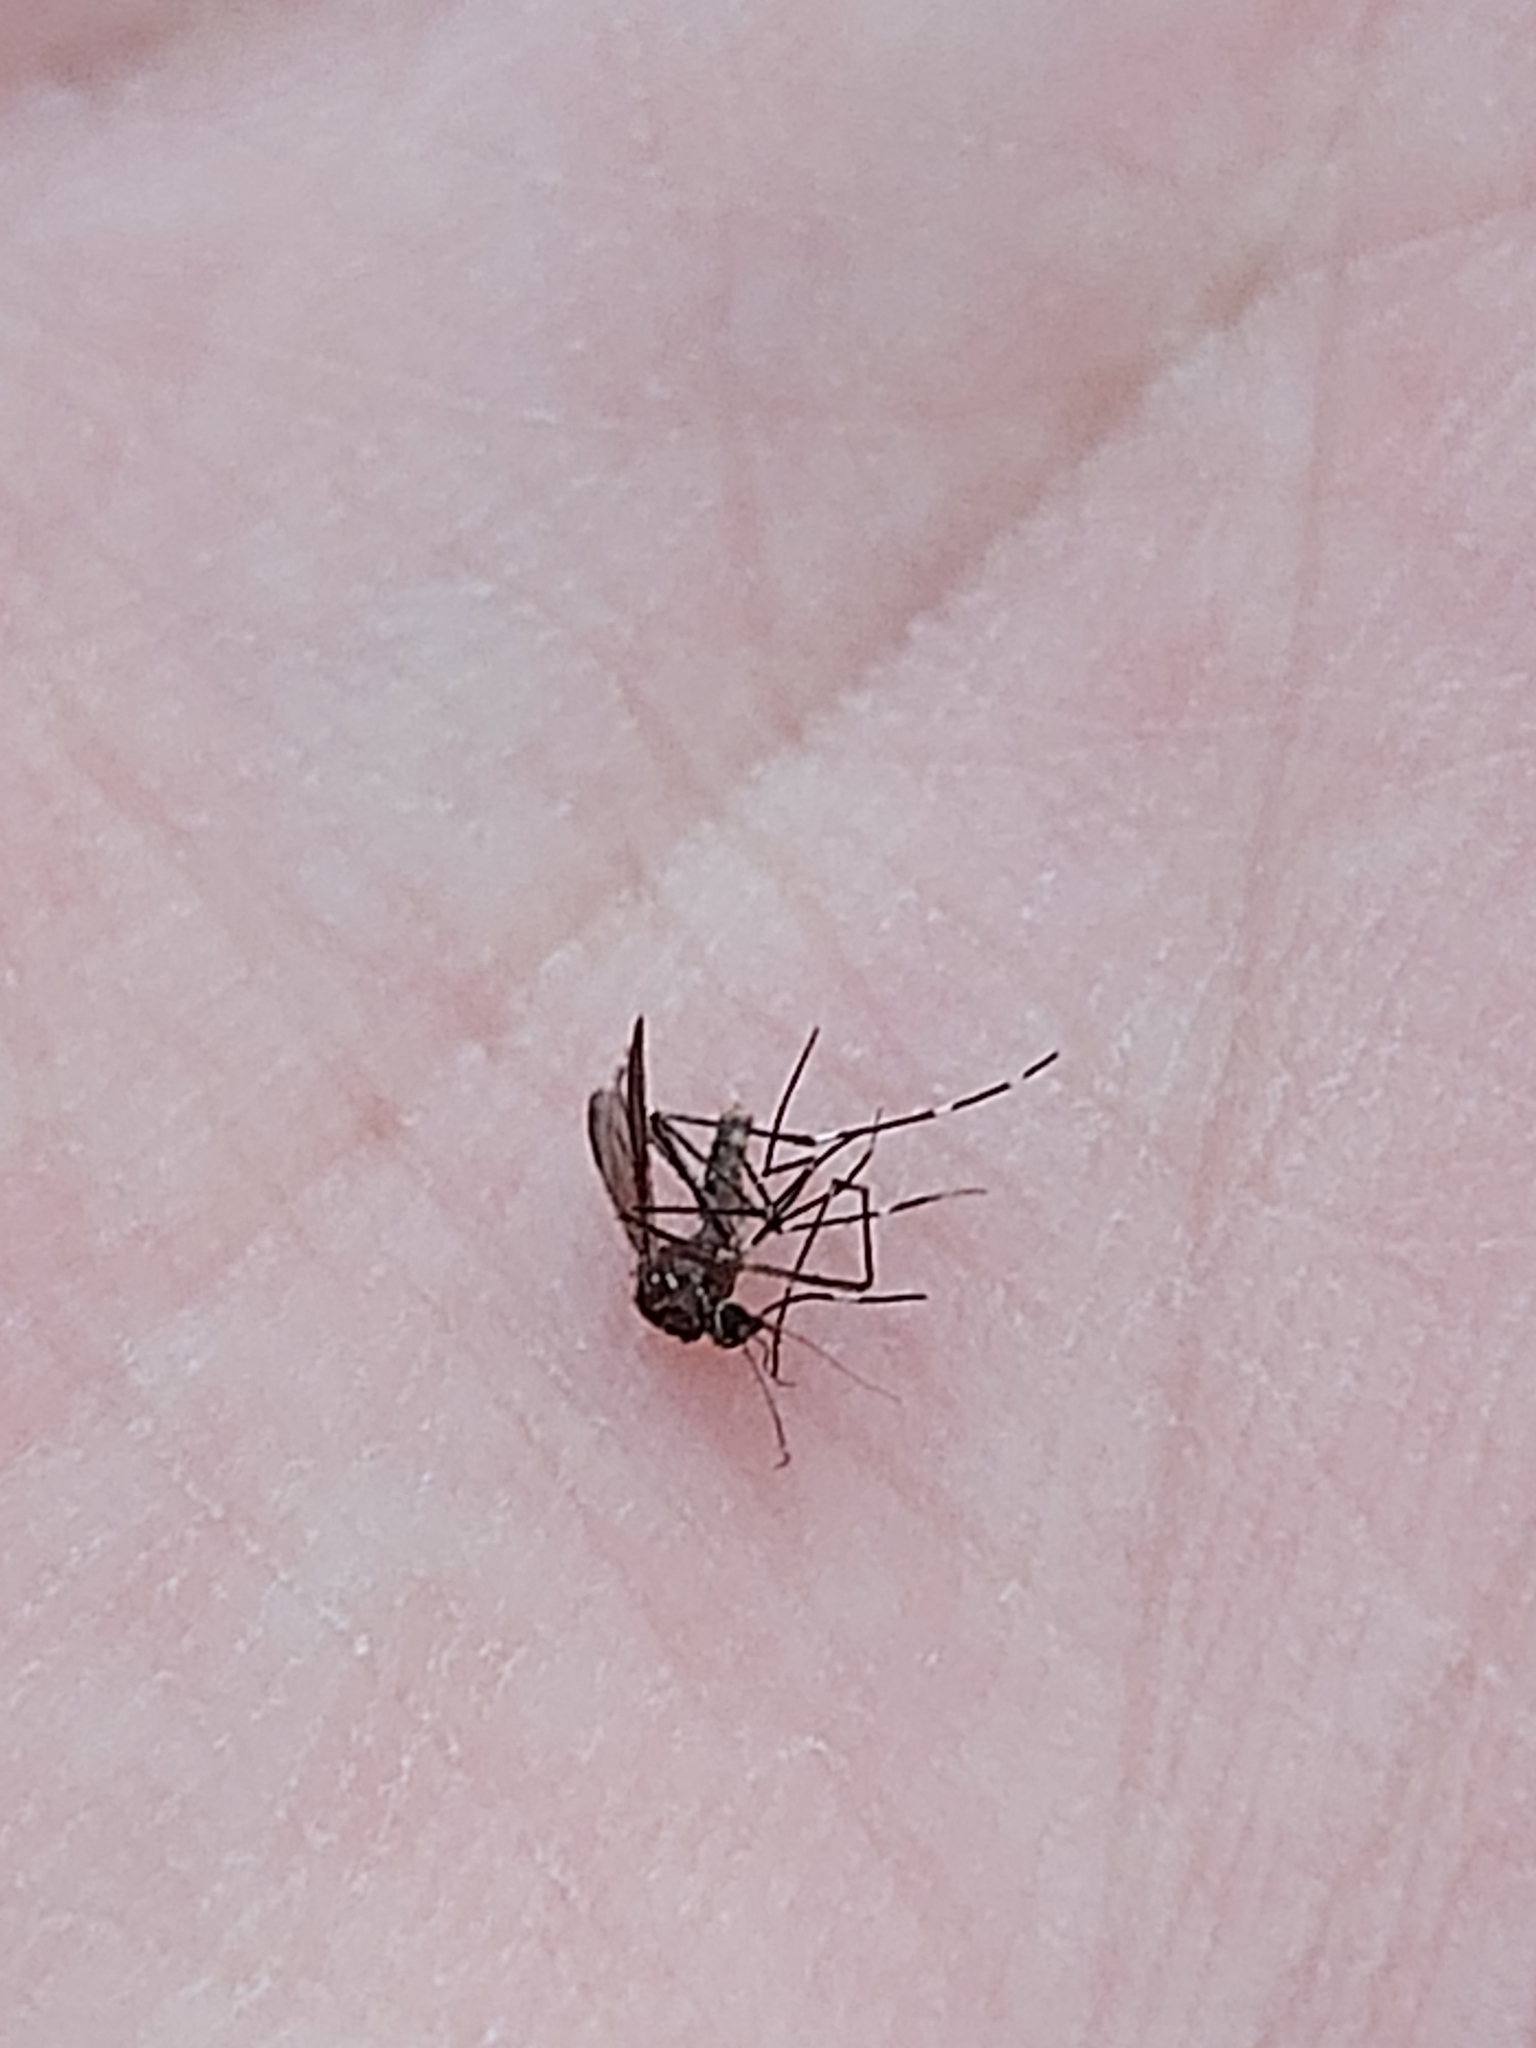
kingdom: Animalia
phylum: Arthropoda
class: Insecta
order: Diptera
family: Culicidae
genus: Aedes
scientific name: Aedes notoscriptus
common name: Australian backyard mosquito
